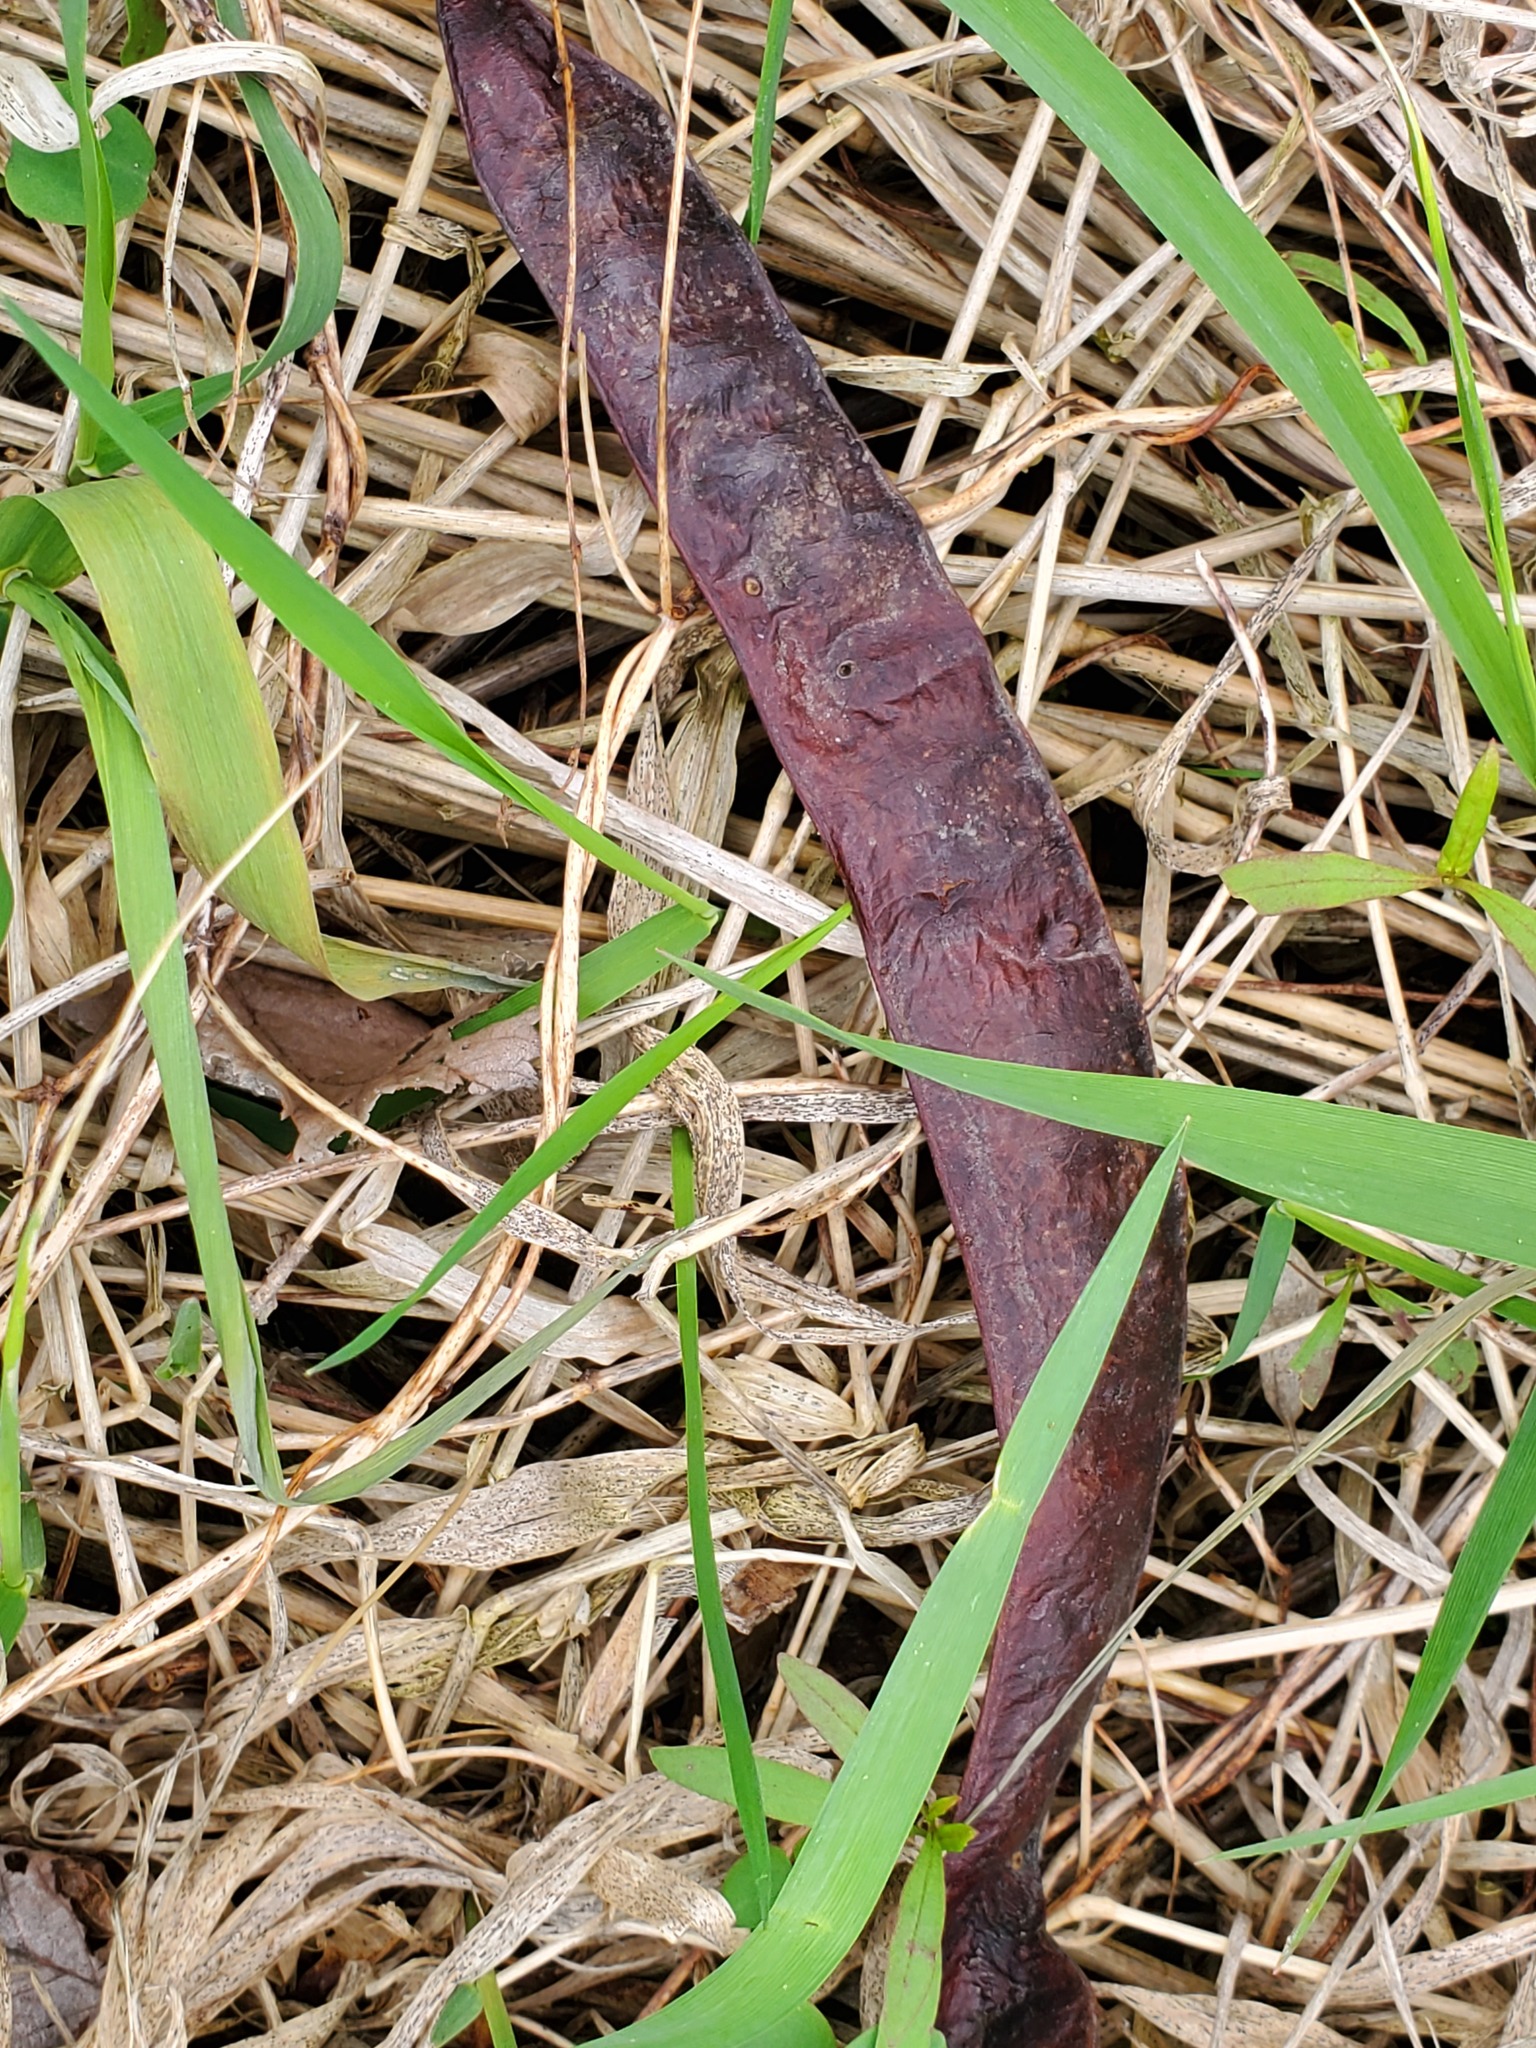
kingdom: Plantae
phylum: Tracheophyta
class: Magnoliopsida
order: Fabales
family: Fabaceae
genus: Gleditsia
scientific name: Gleditsia triacanthos
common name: Common honeylocust
